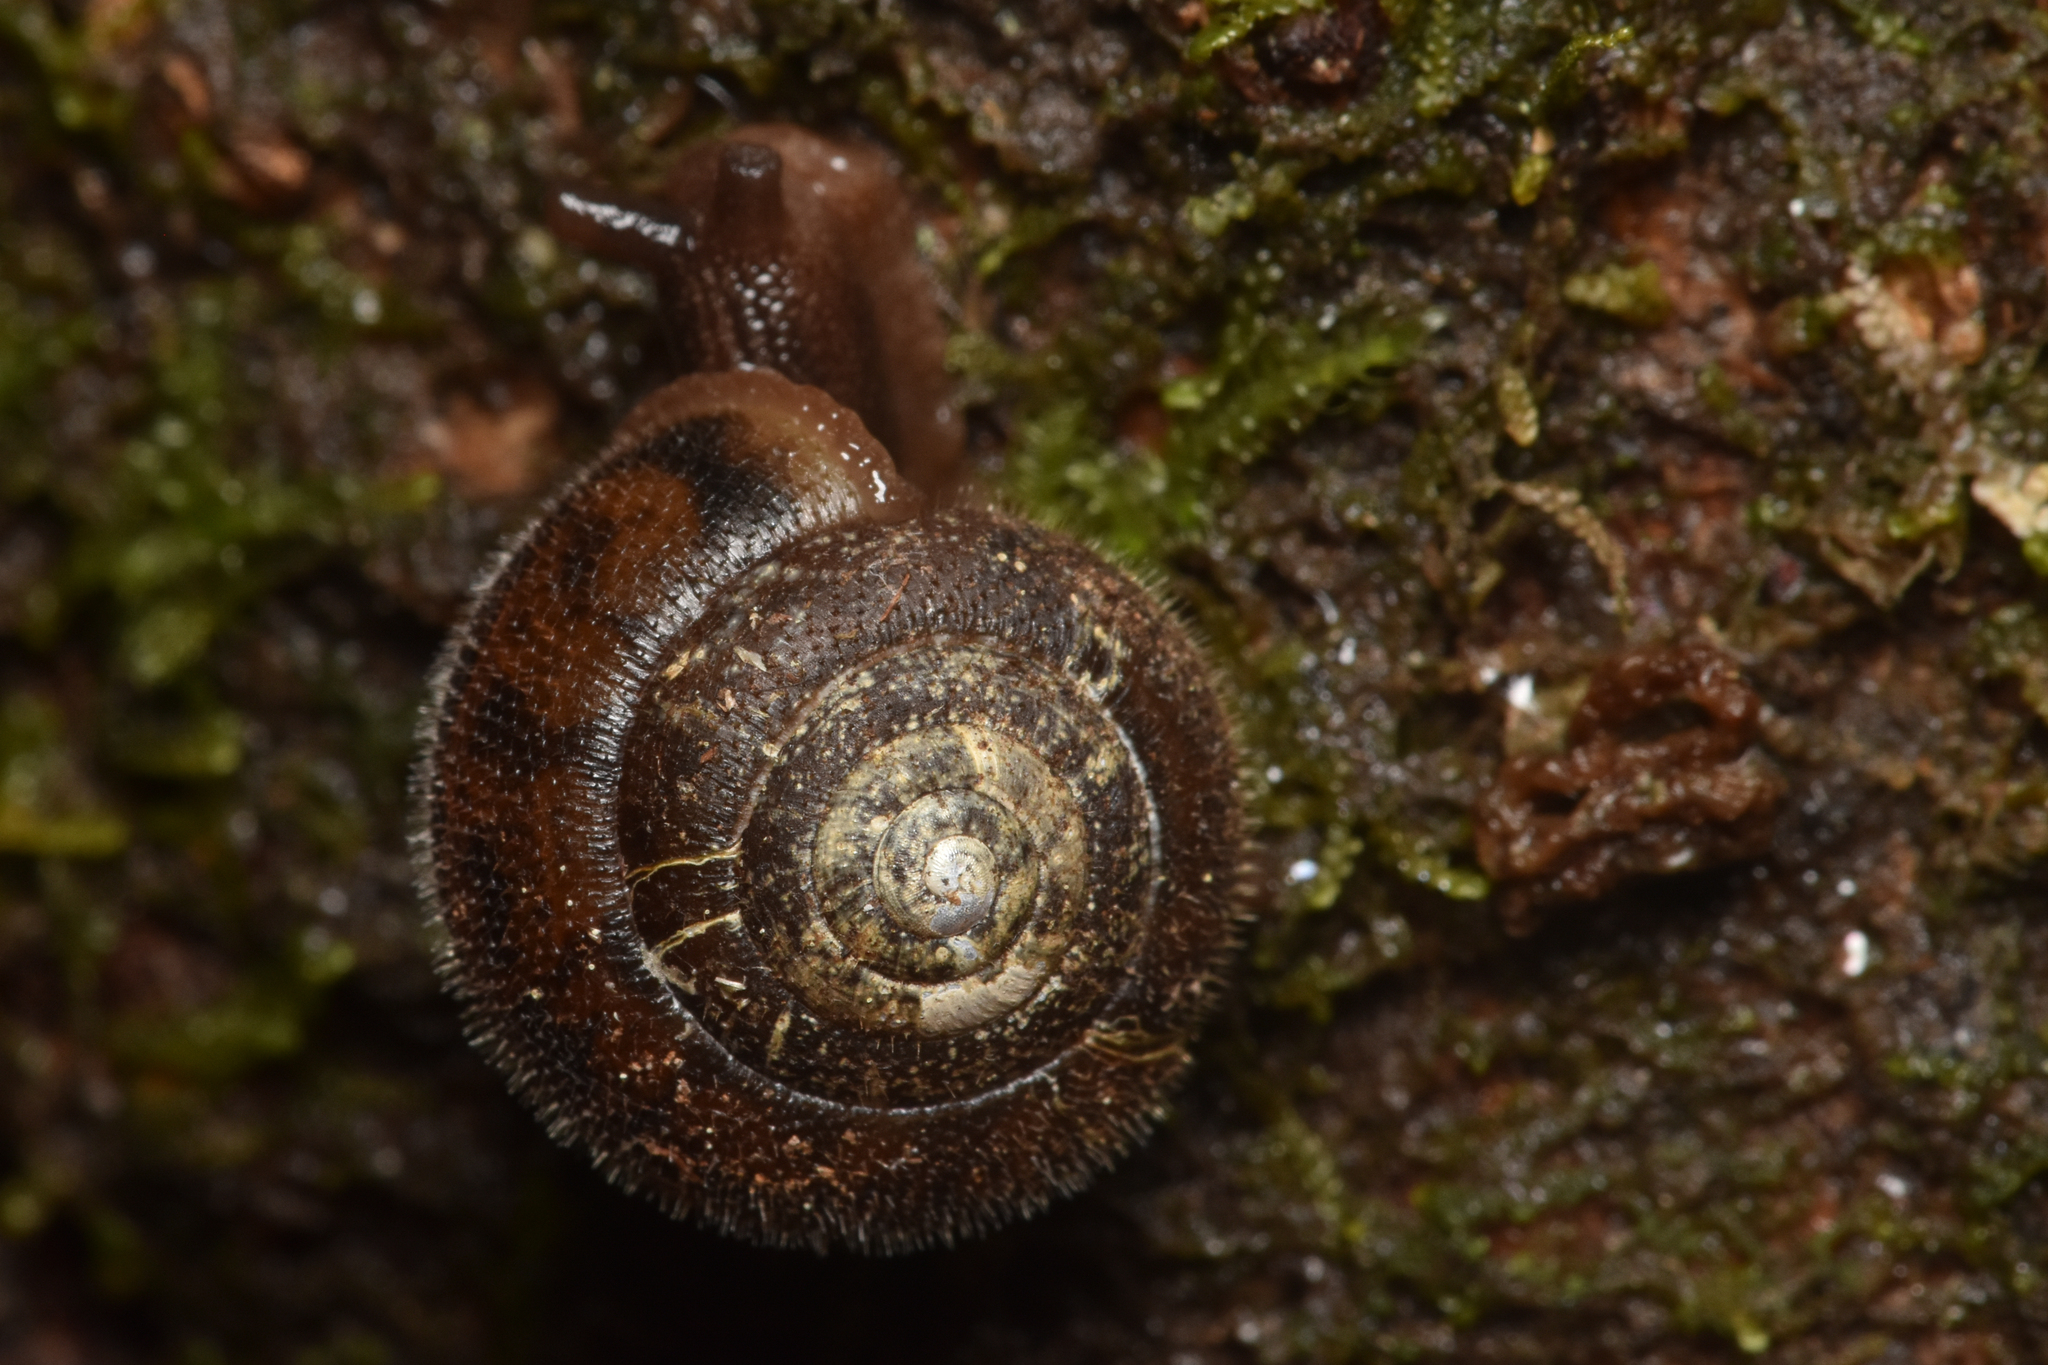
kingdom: Animalia
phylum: Mollusca
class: Gastropoda
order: Stylommatophora
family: Polygyridae
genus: Vespericola
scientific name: Vespericola columbianus
